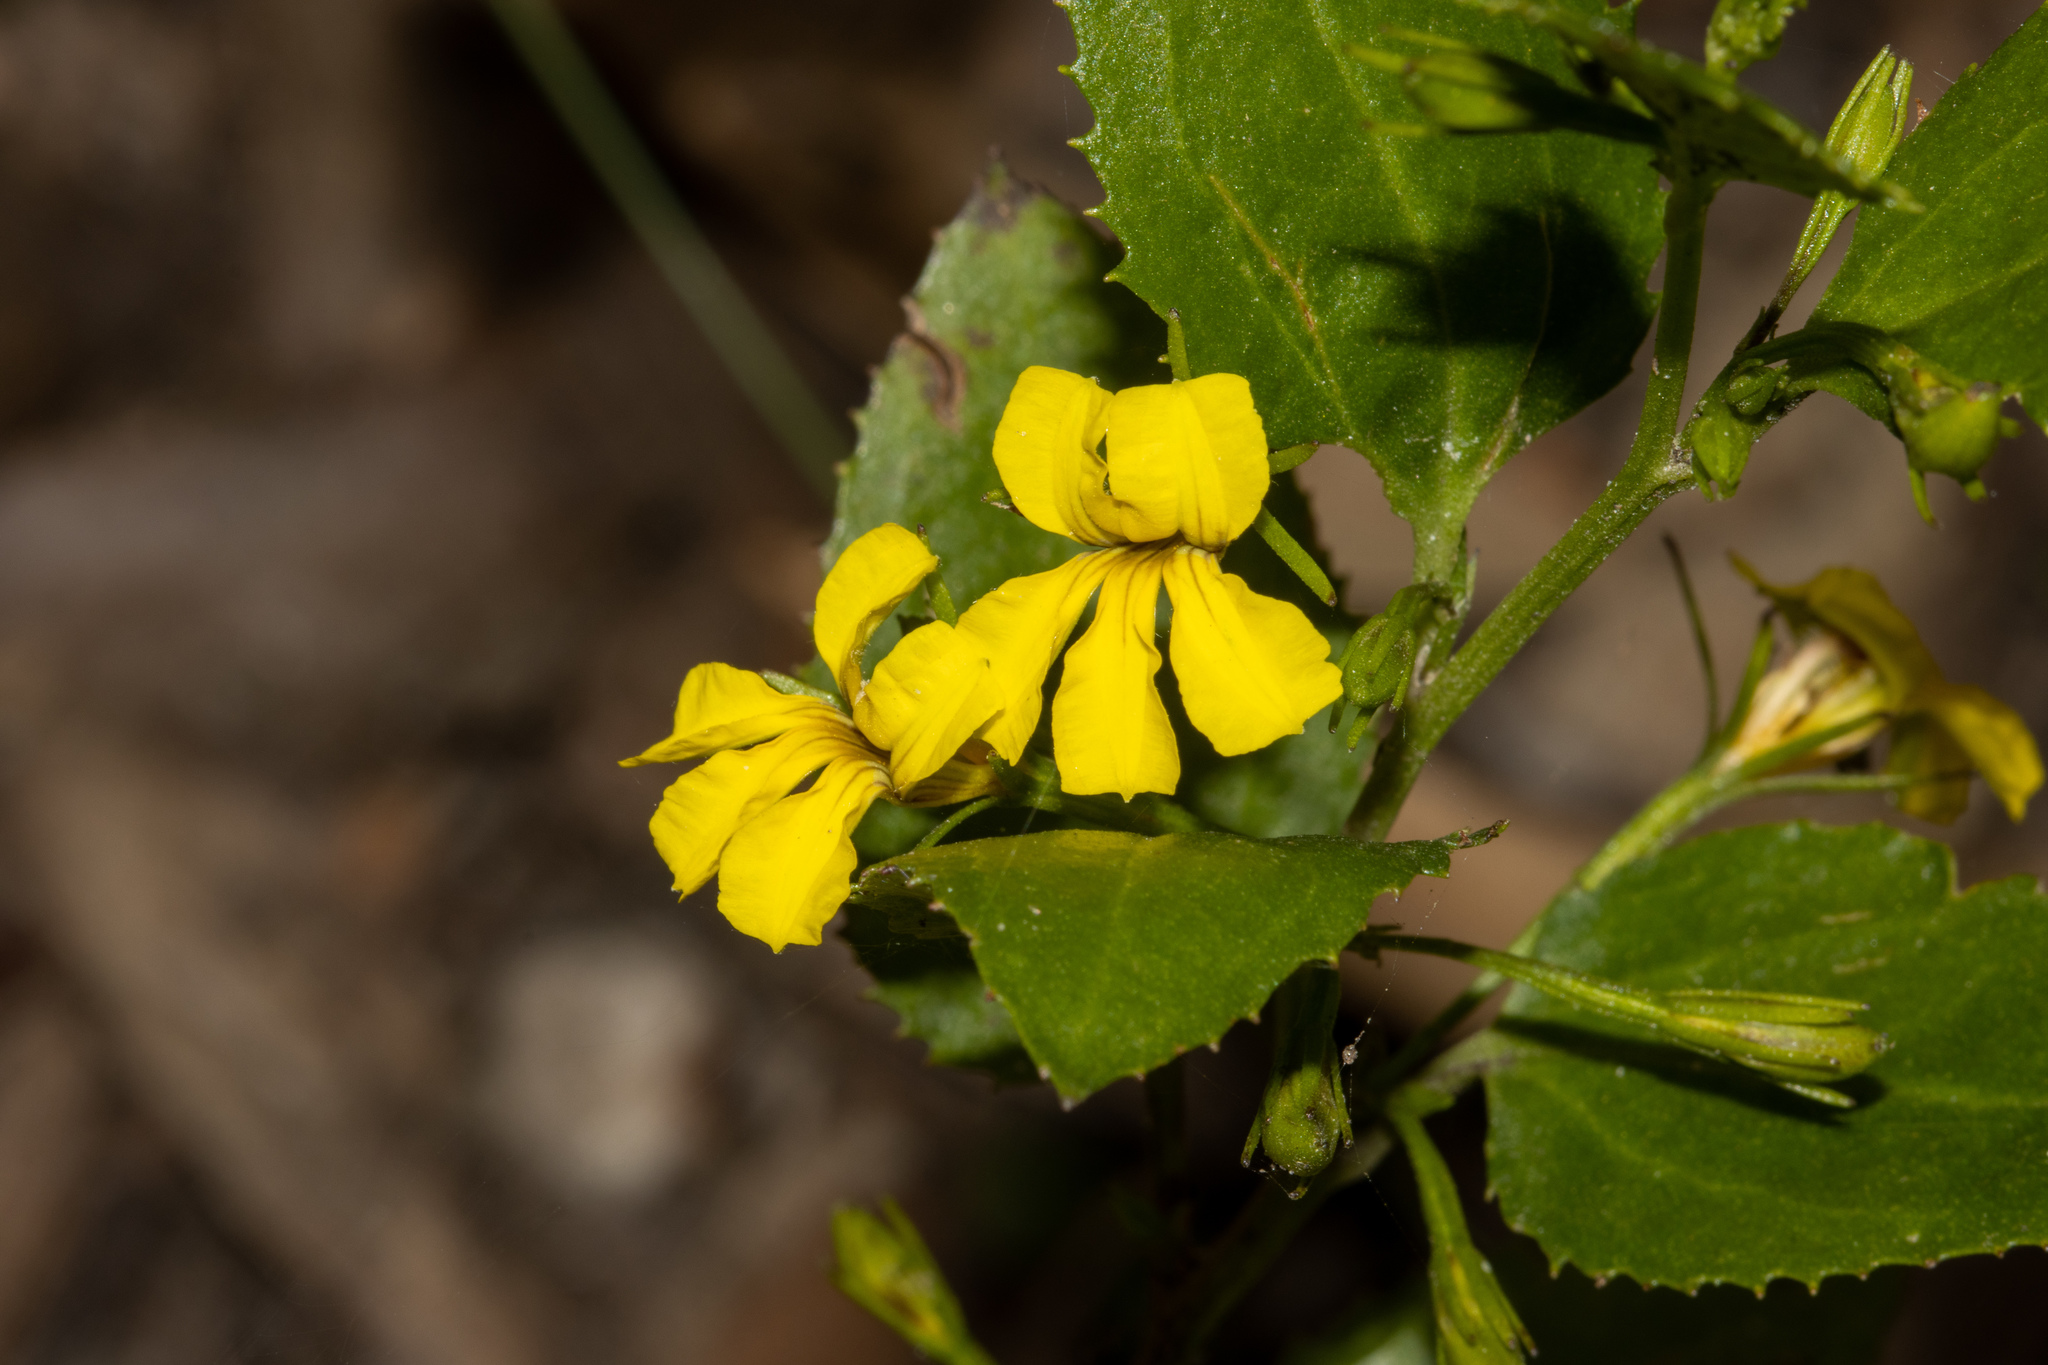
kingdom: Plantae
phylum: Tracheophyta
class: Magnoliopsida
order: Asterales
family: Goodeniaceae
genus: Goodenia
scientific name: Goodenia ovata
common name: Hop goodenia
